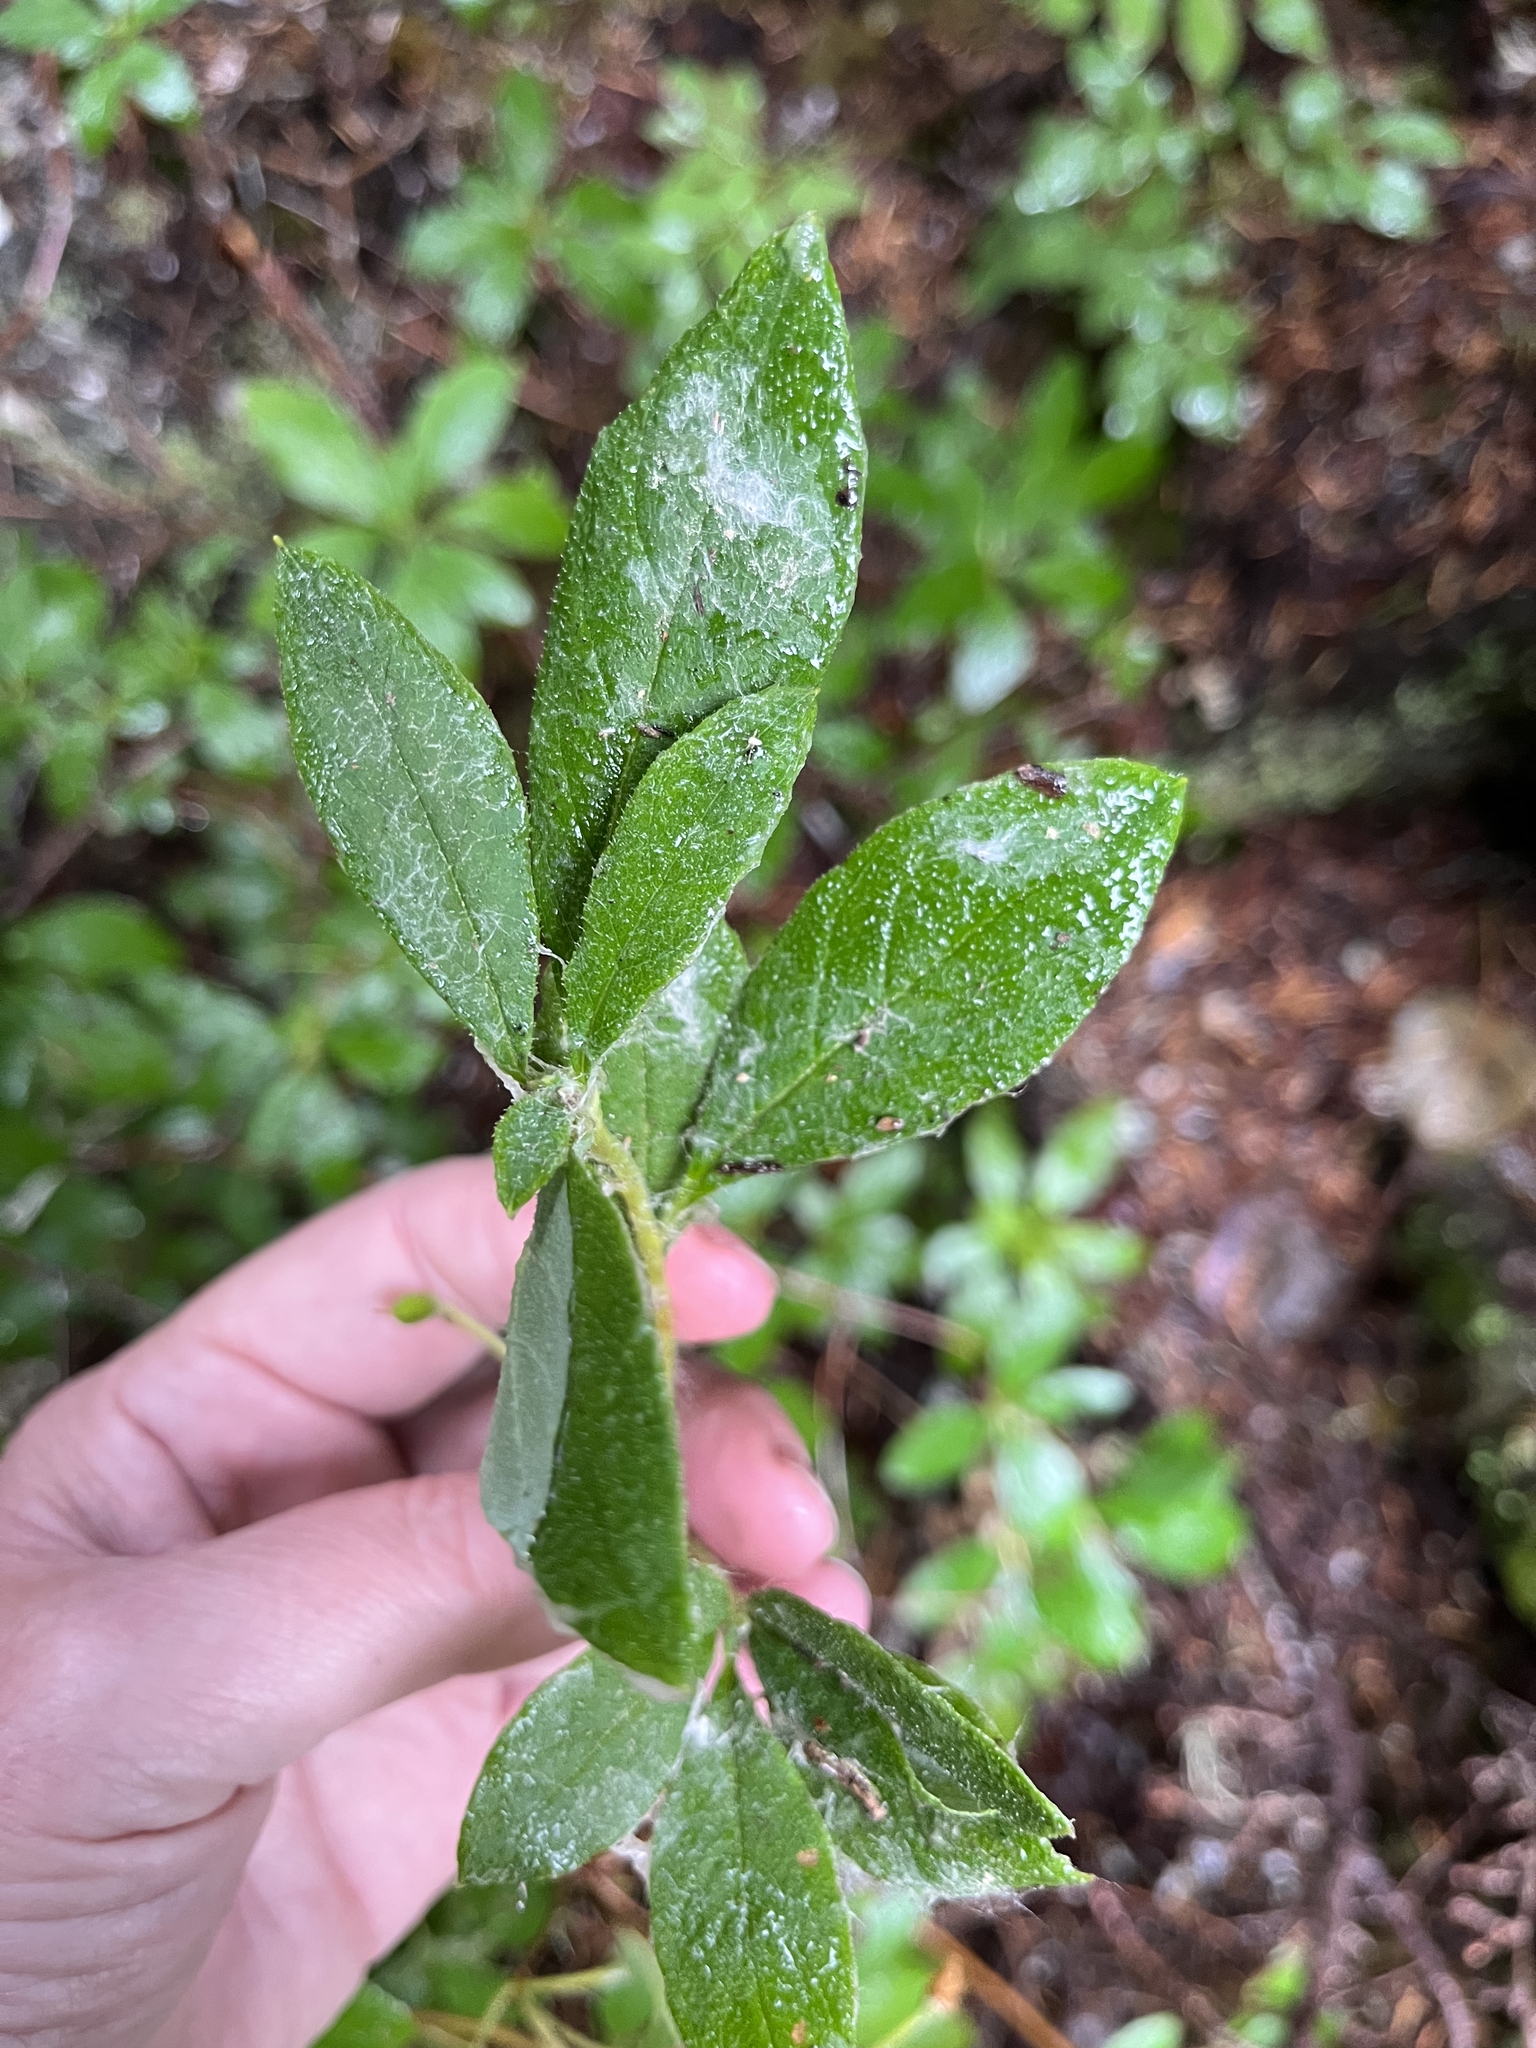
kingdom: Plantae
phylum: Tracheophyta
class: Magnoliopsida
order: Ericales
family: Ericaceae
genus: Rhododendron
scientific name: Rhododendron menziesii
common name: Pacific menziesia
